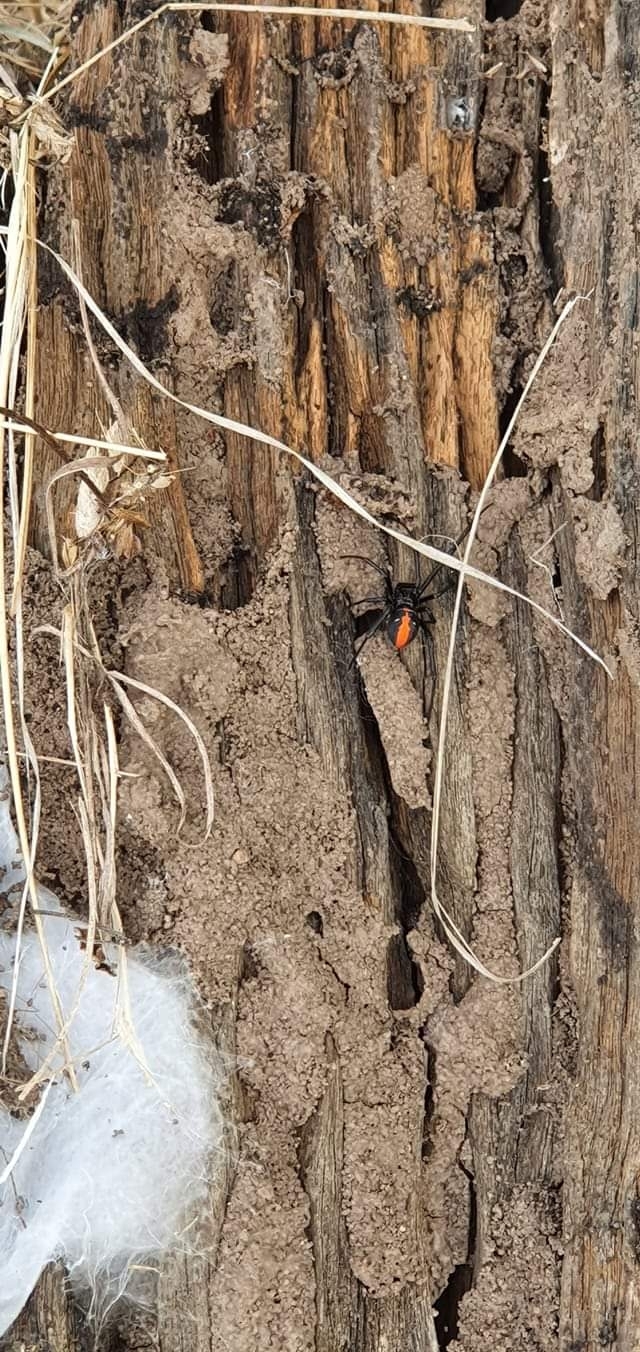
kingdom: Animalia
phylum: Arthropoda
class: Arachnida
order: Araneae
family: Theridiidae
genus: Latrodectus
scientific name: Latrodectus hasselti
